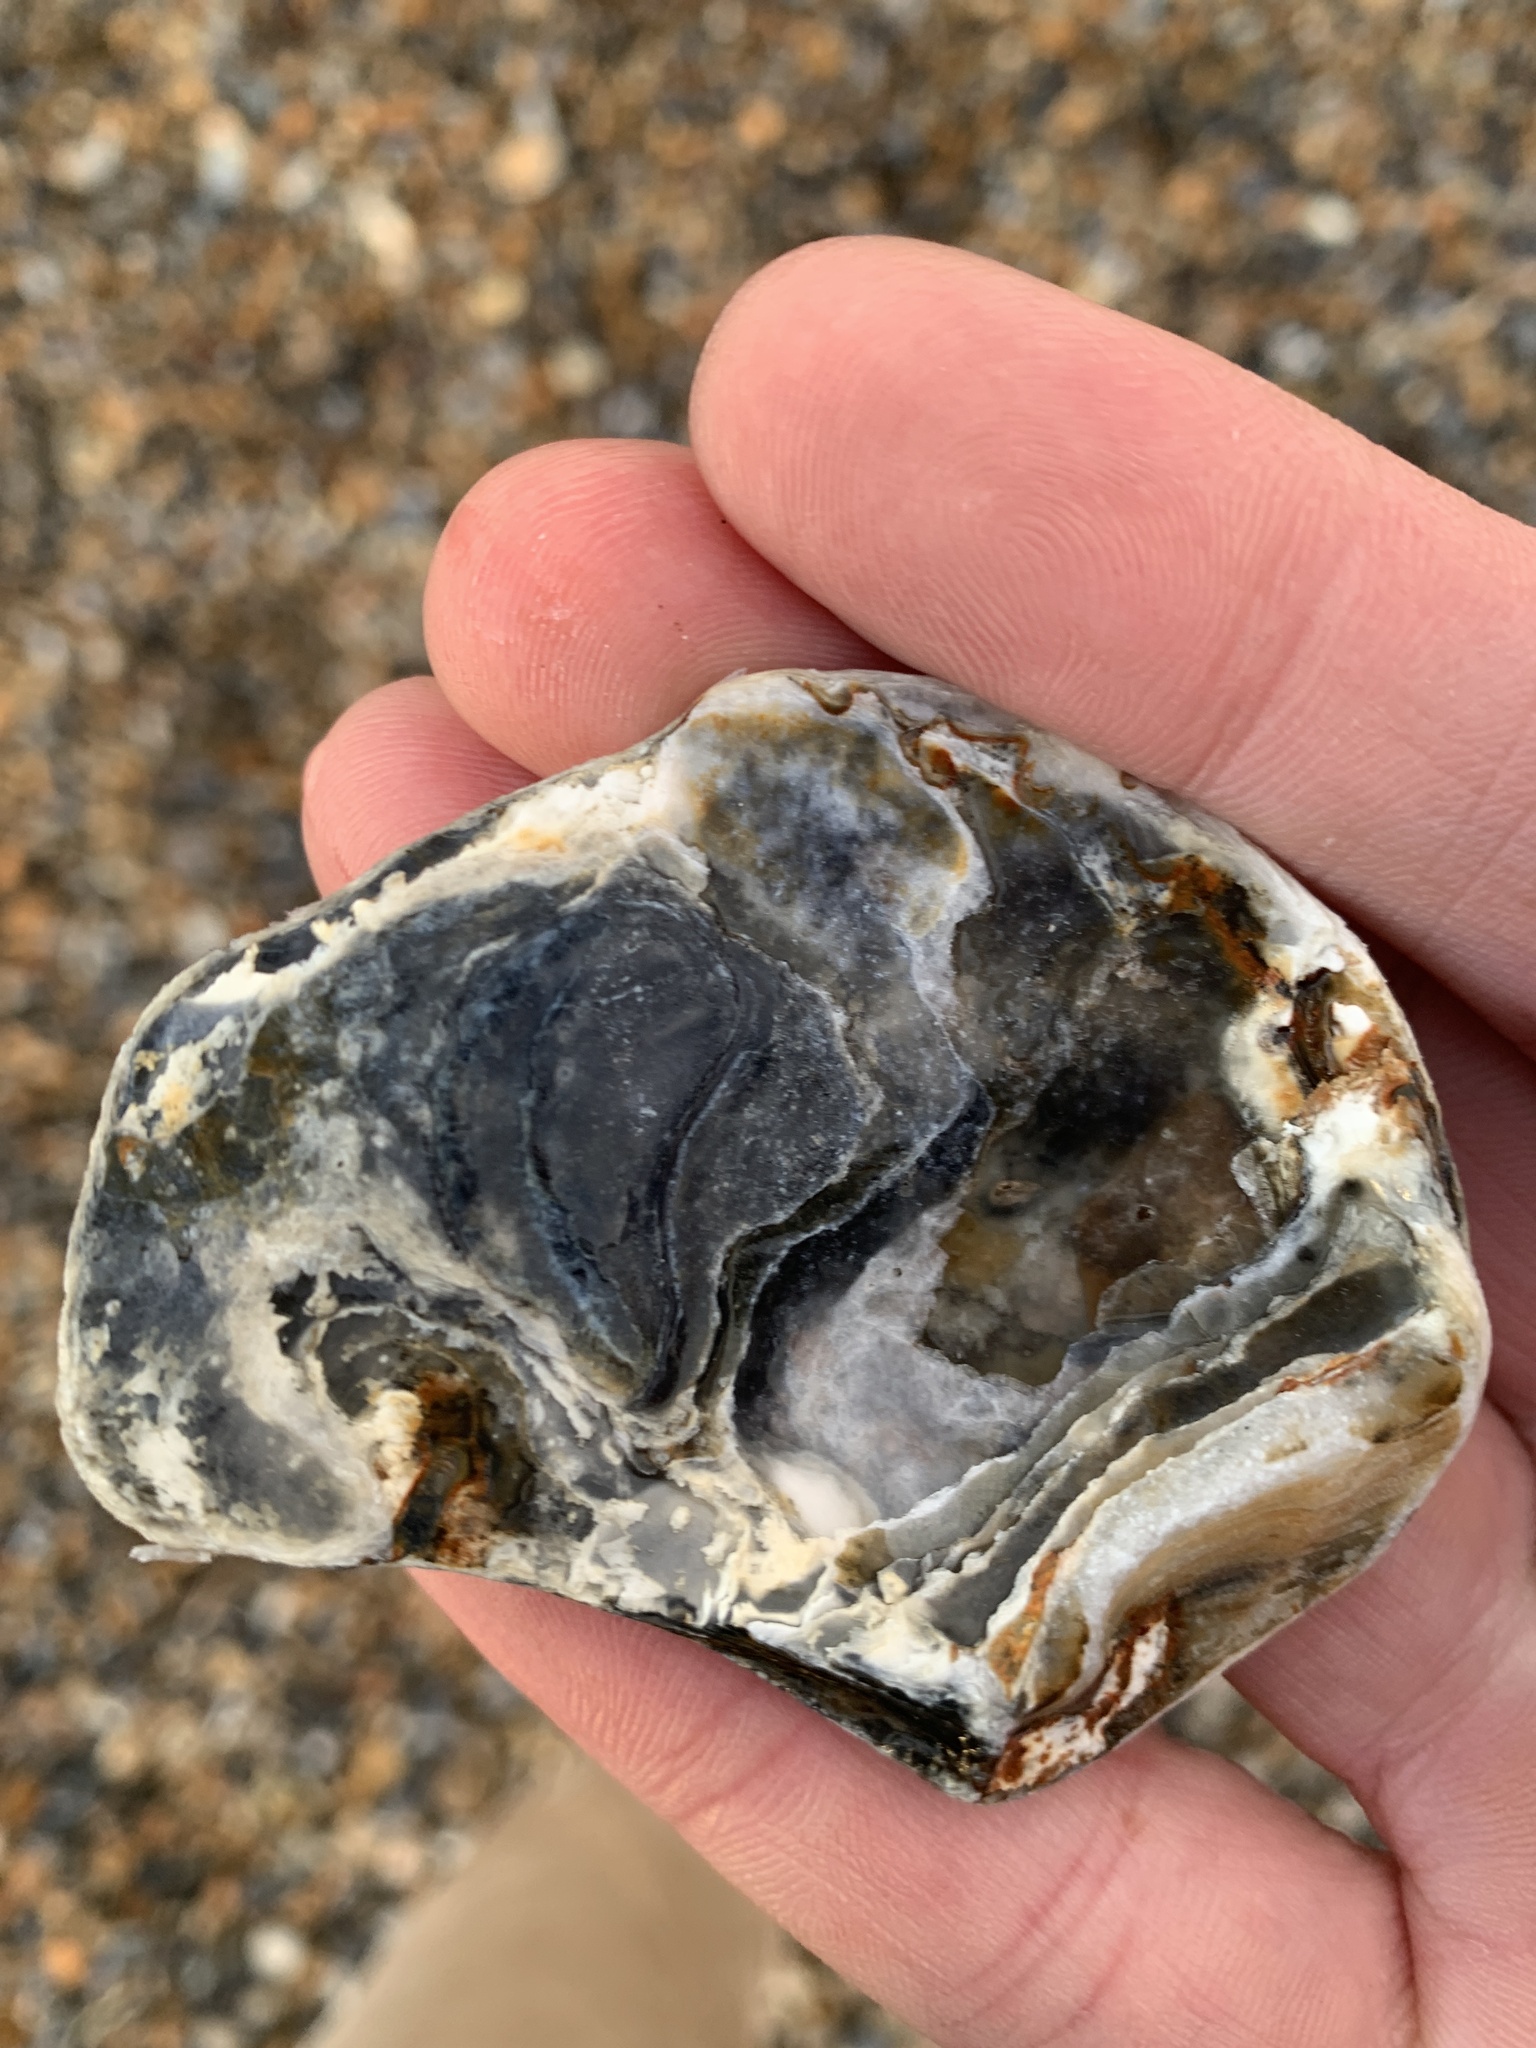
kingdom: Animalia
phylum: Mollusca
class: Bivalvia
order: Ostreida
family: Ostreidae
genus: Ostrea
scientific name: Ostrea edulis
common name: Flat oyster
